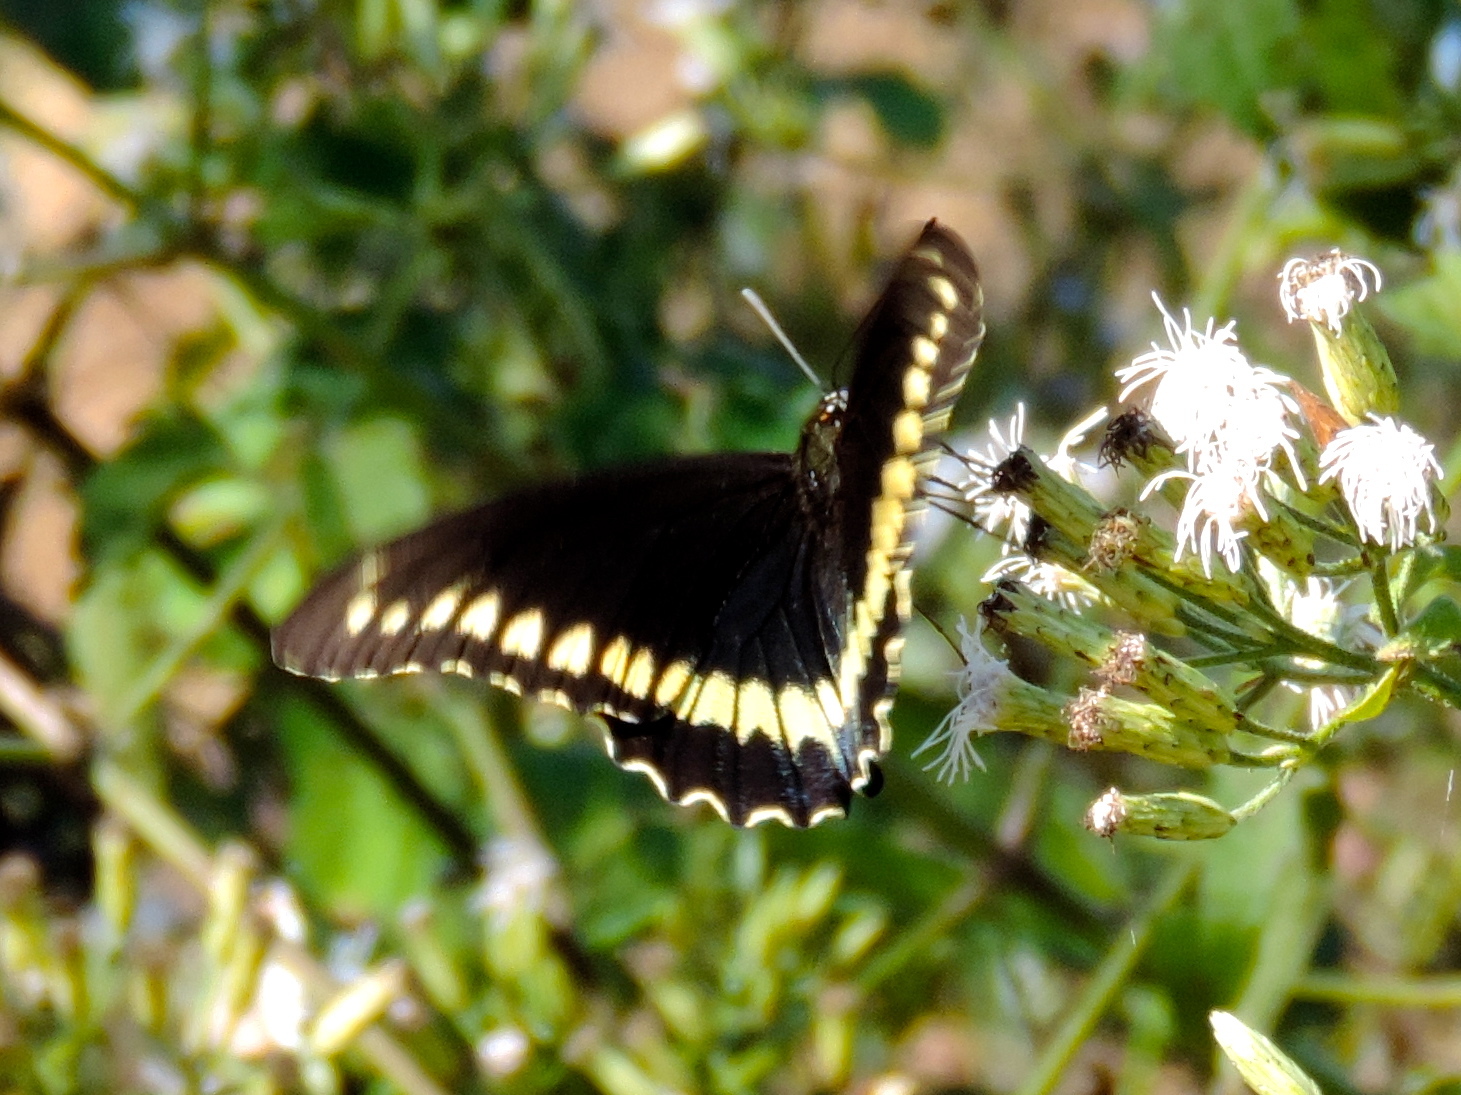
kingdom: Animalia
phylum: Arthropoda
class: Insecta
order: Lepidoptera
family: Papilionidae
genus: Battus
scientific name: Battus polydamas
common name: Polydamas swallowtail
